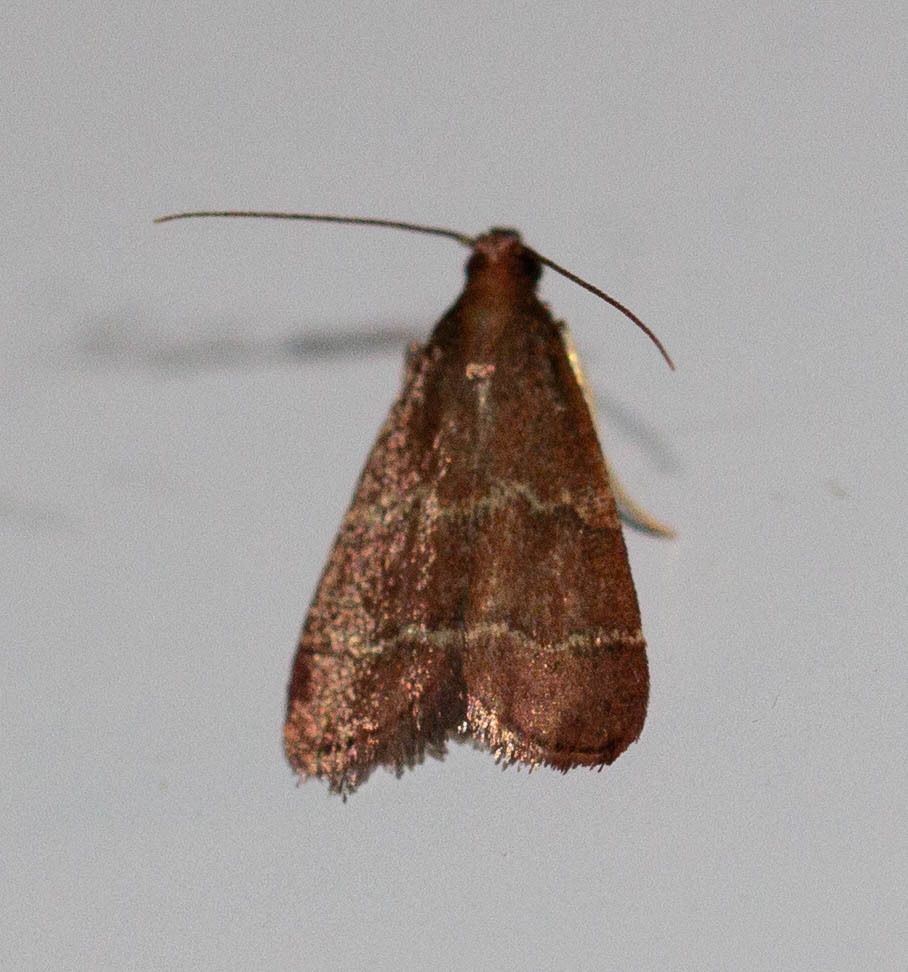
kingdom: Animalia
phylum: Arthropoda
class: Insecta
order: Lepidoptera
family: Pyralidae
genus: Arta
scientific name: Arta
